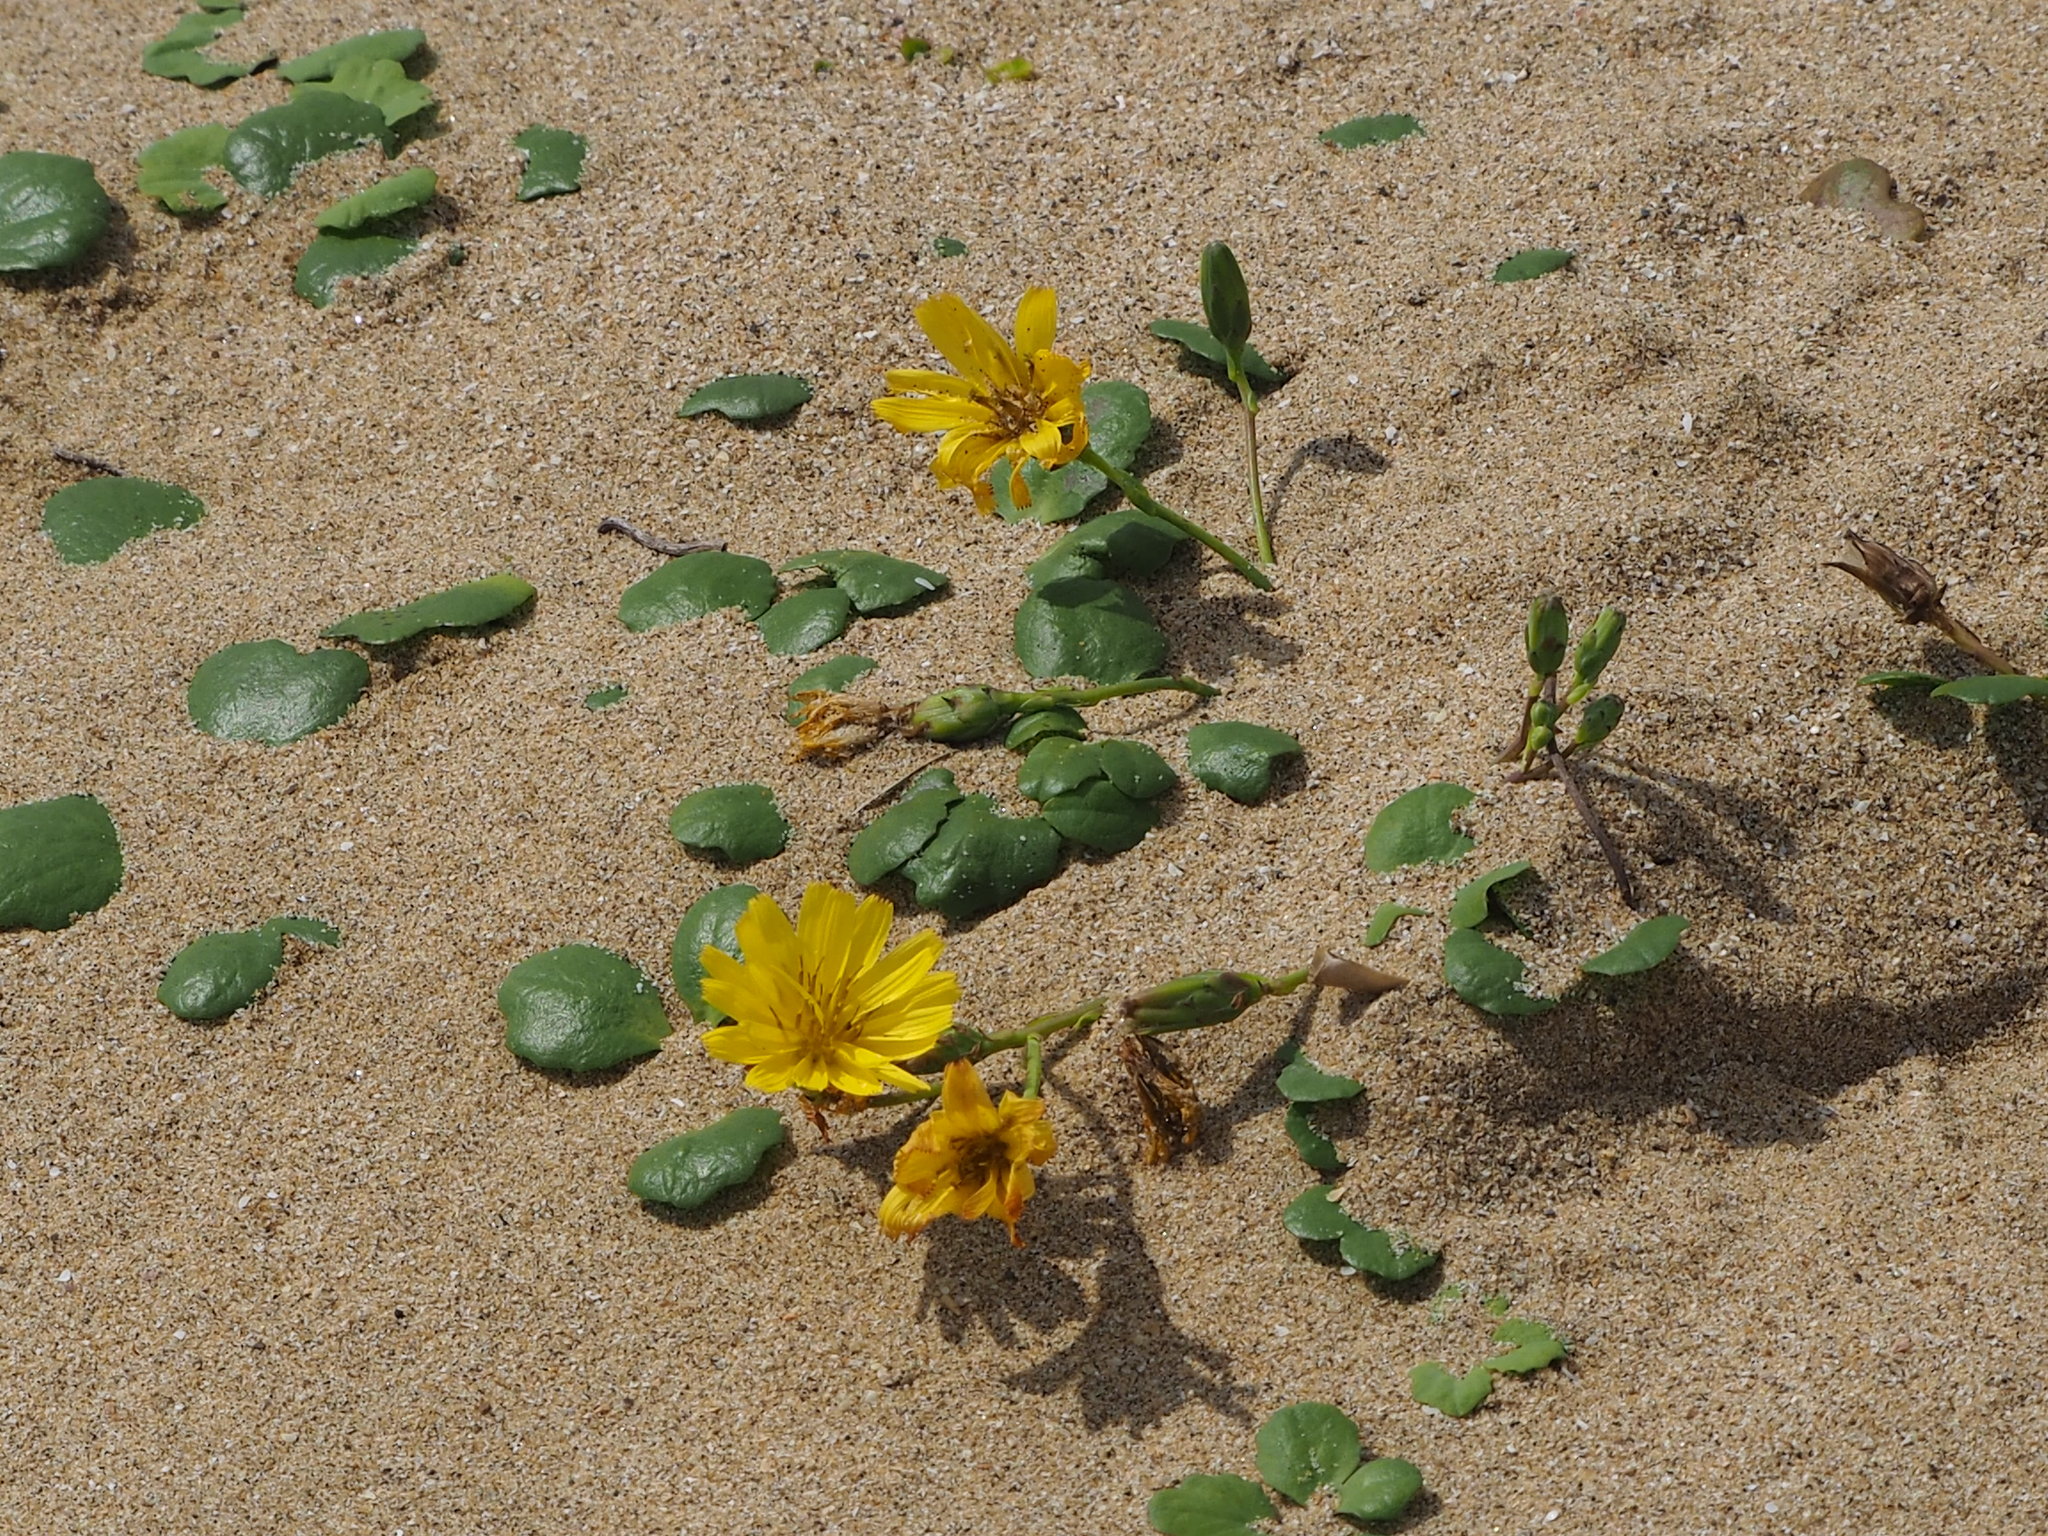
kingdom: Plantae
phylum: Tracheophyta
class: Magnoliopsida
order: Asterales
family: Asteraceae
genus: Ixeris
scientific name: Ixeris repens
